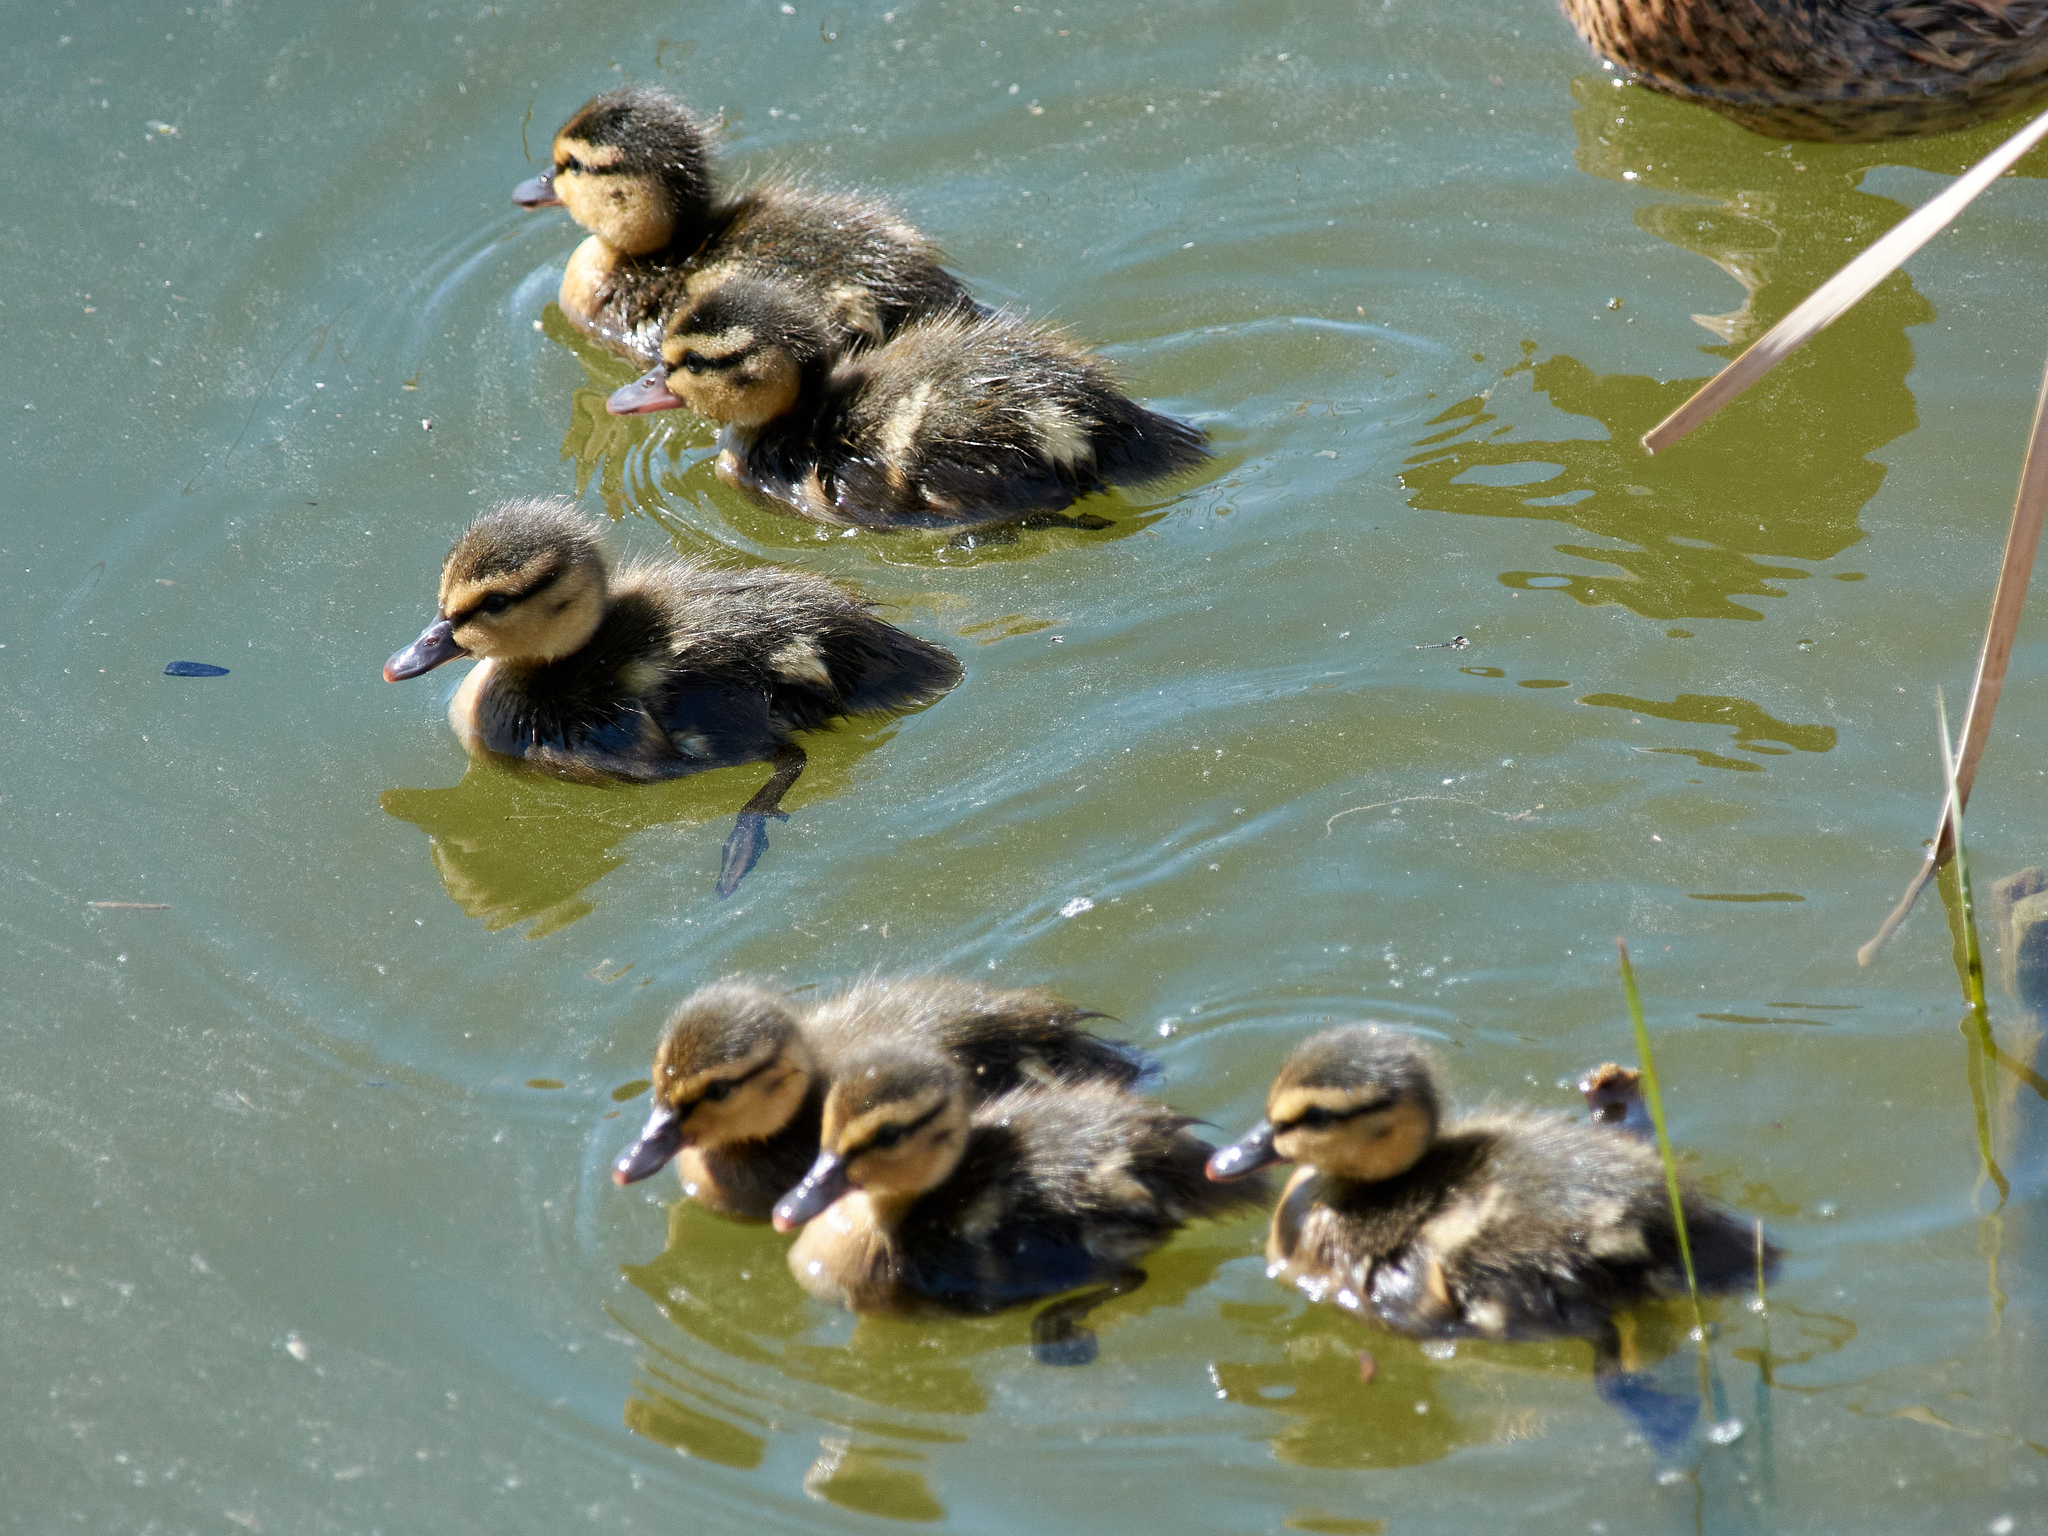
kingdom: Animalia
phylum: Chordata
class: Aves
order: Anseriformes
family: Anatidae
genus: Anas
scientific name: Anas platyrhynchos
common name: Mallard
